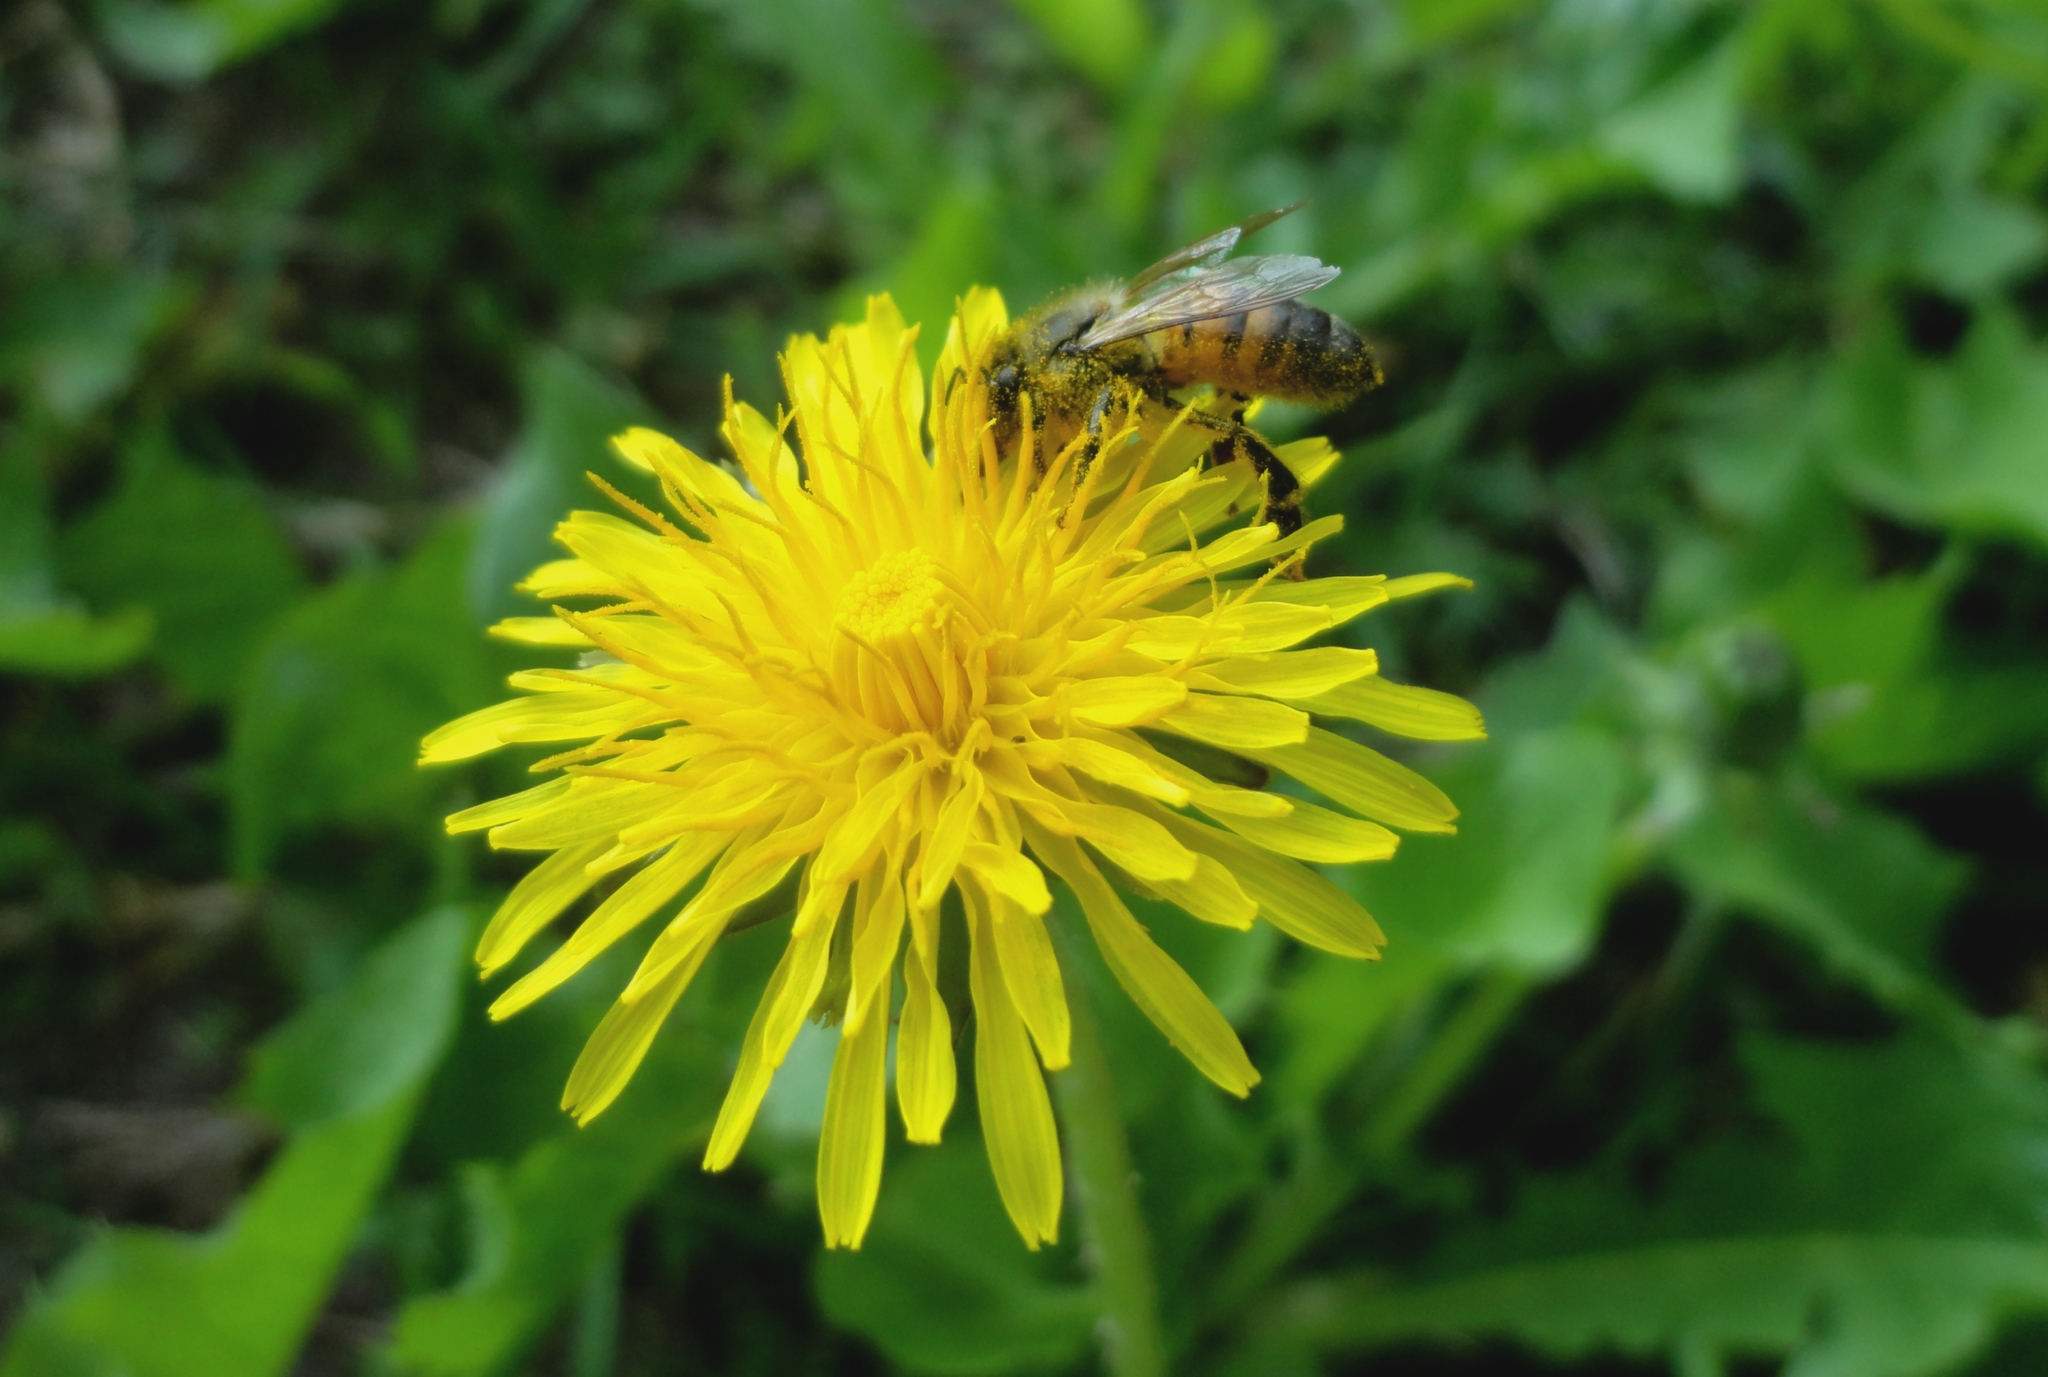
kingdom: Animalia
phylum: Arthropoda
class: Insecta
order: Hymenoptera
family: Apidae
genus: Apis
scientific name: Apis mellifera
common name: Honey bee
